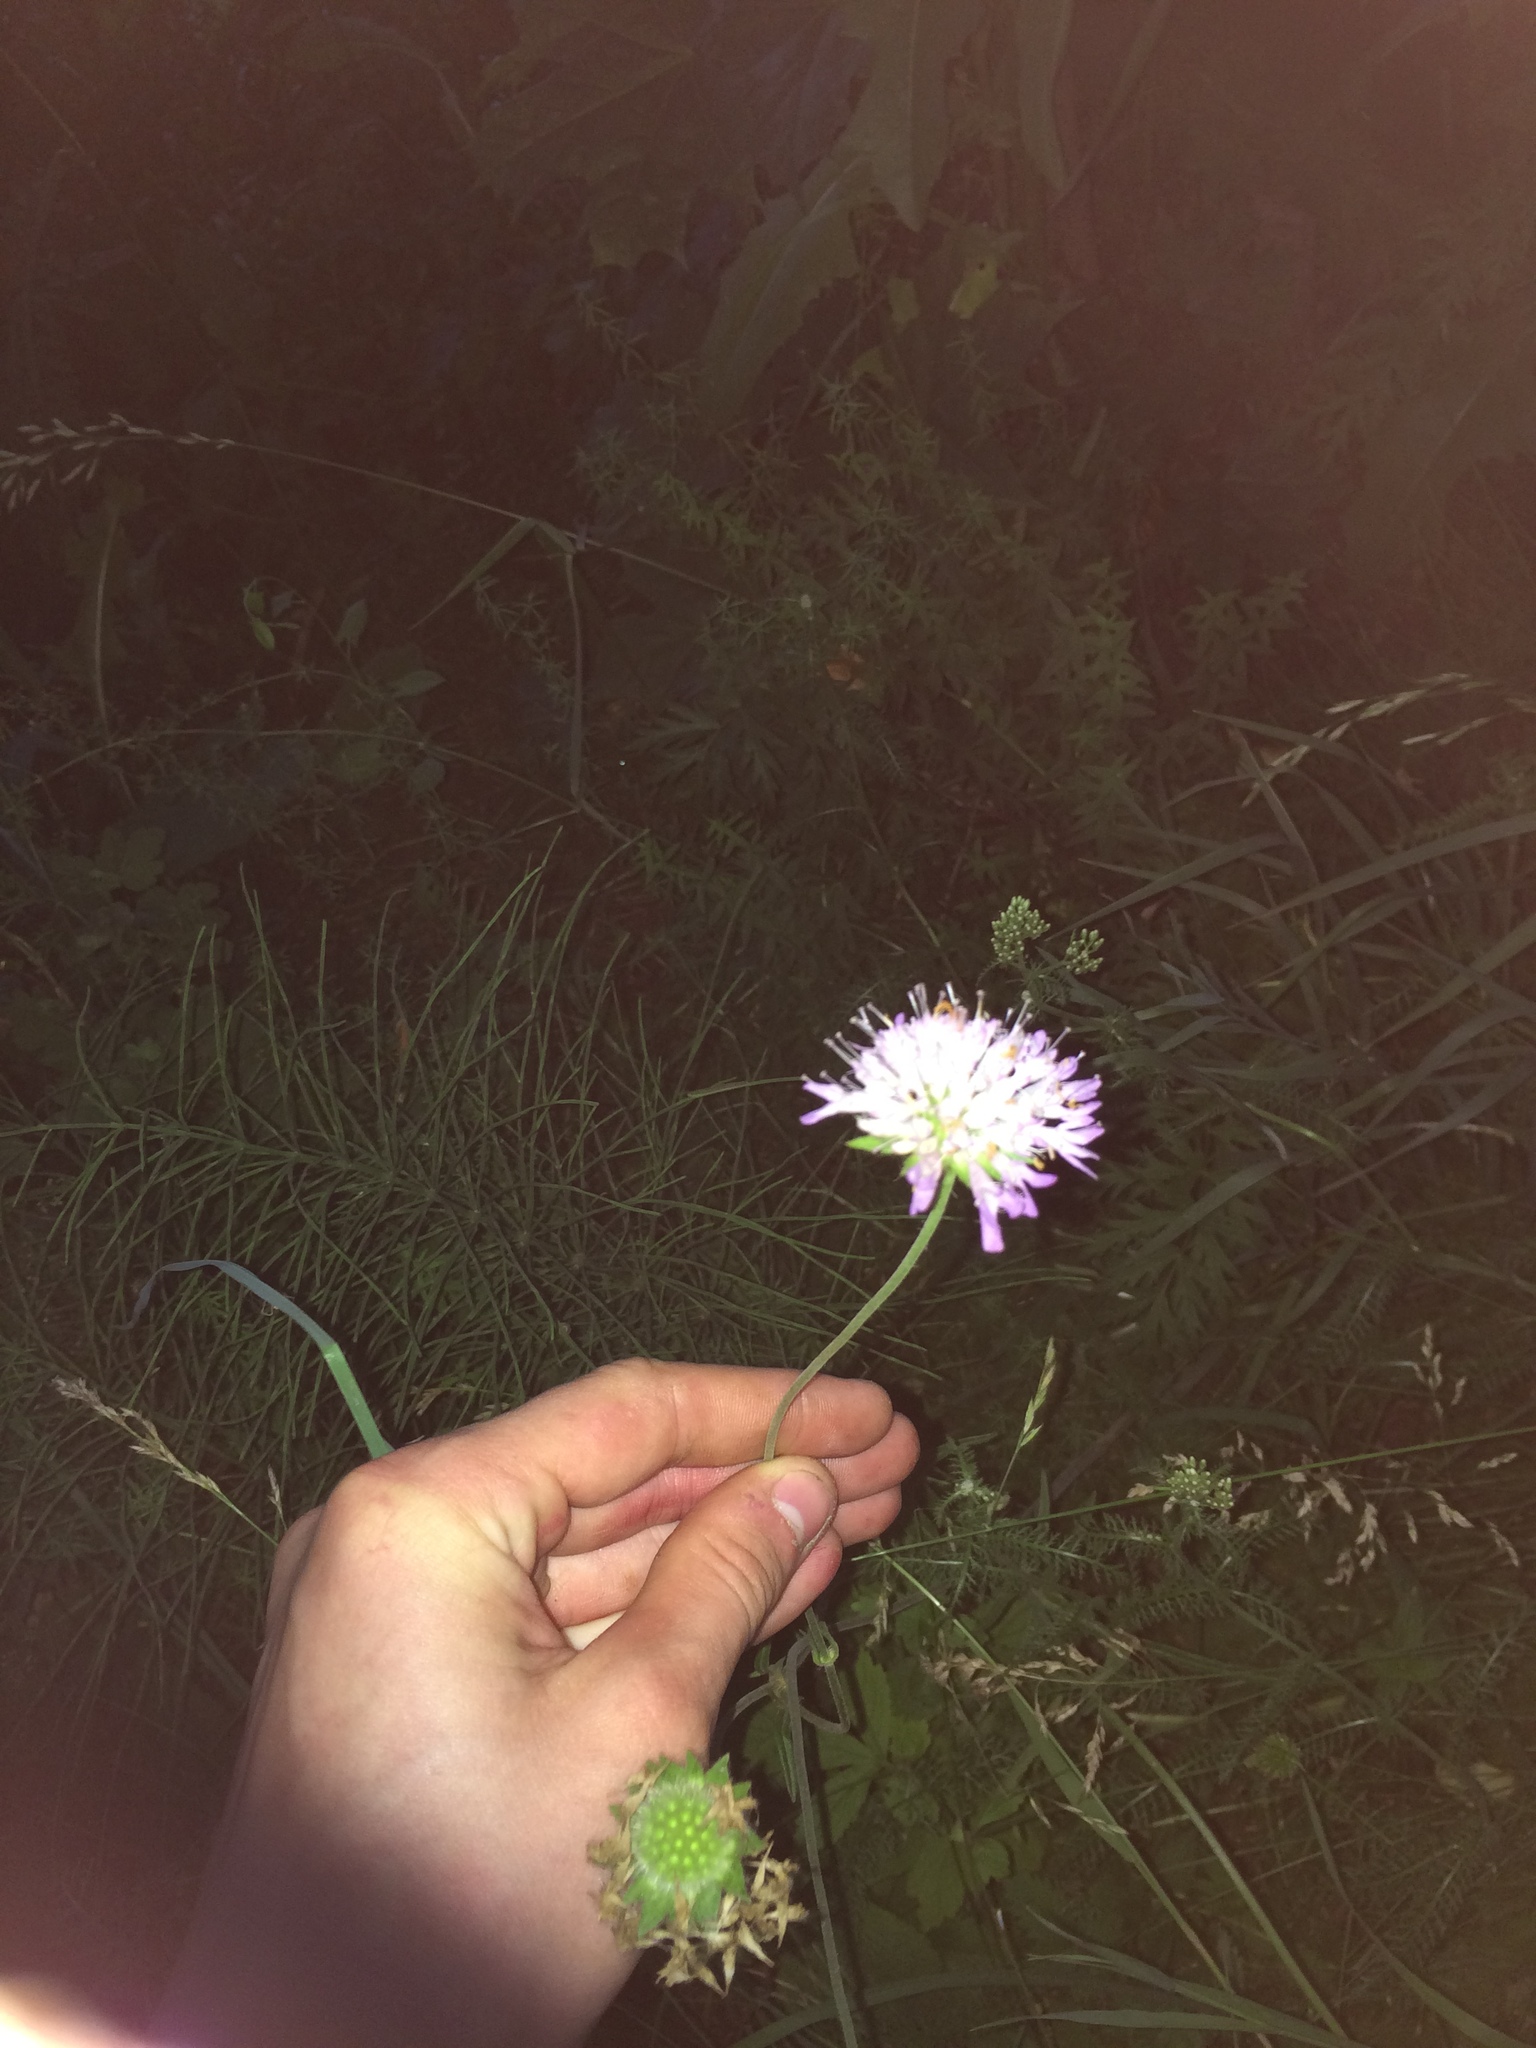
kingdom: Plantae
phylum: Tracheophyta
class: Magnoliopsida
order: Dipsacales
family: Caprifoliaceae
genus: Knautia
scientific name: Knautia arvensis
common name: Field scabiosa
